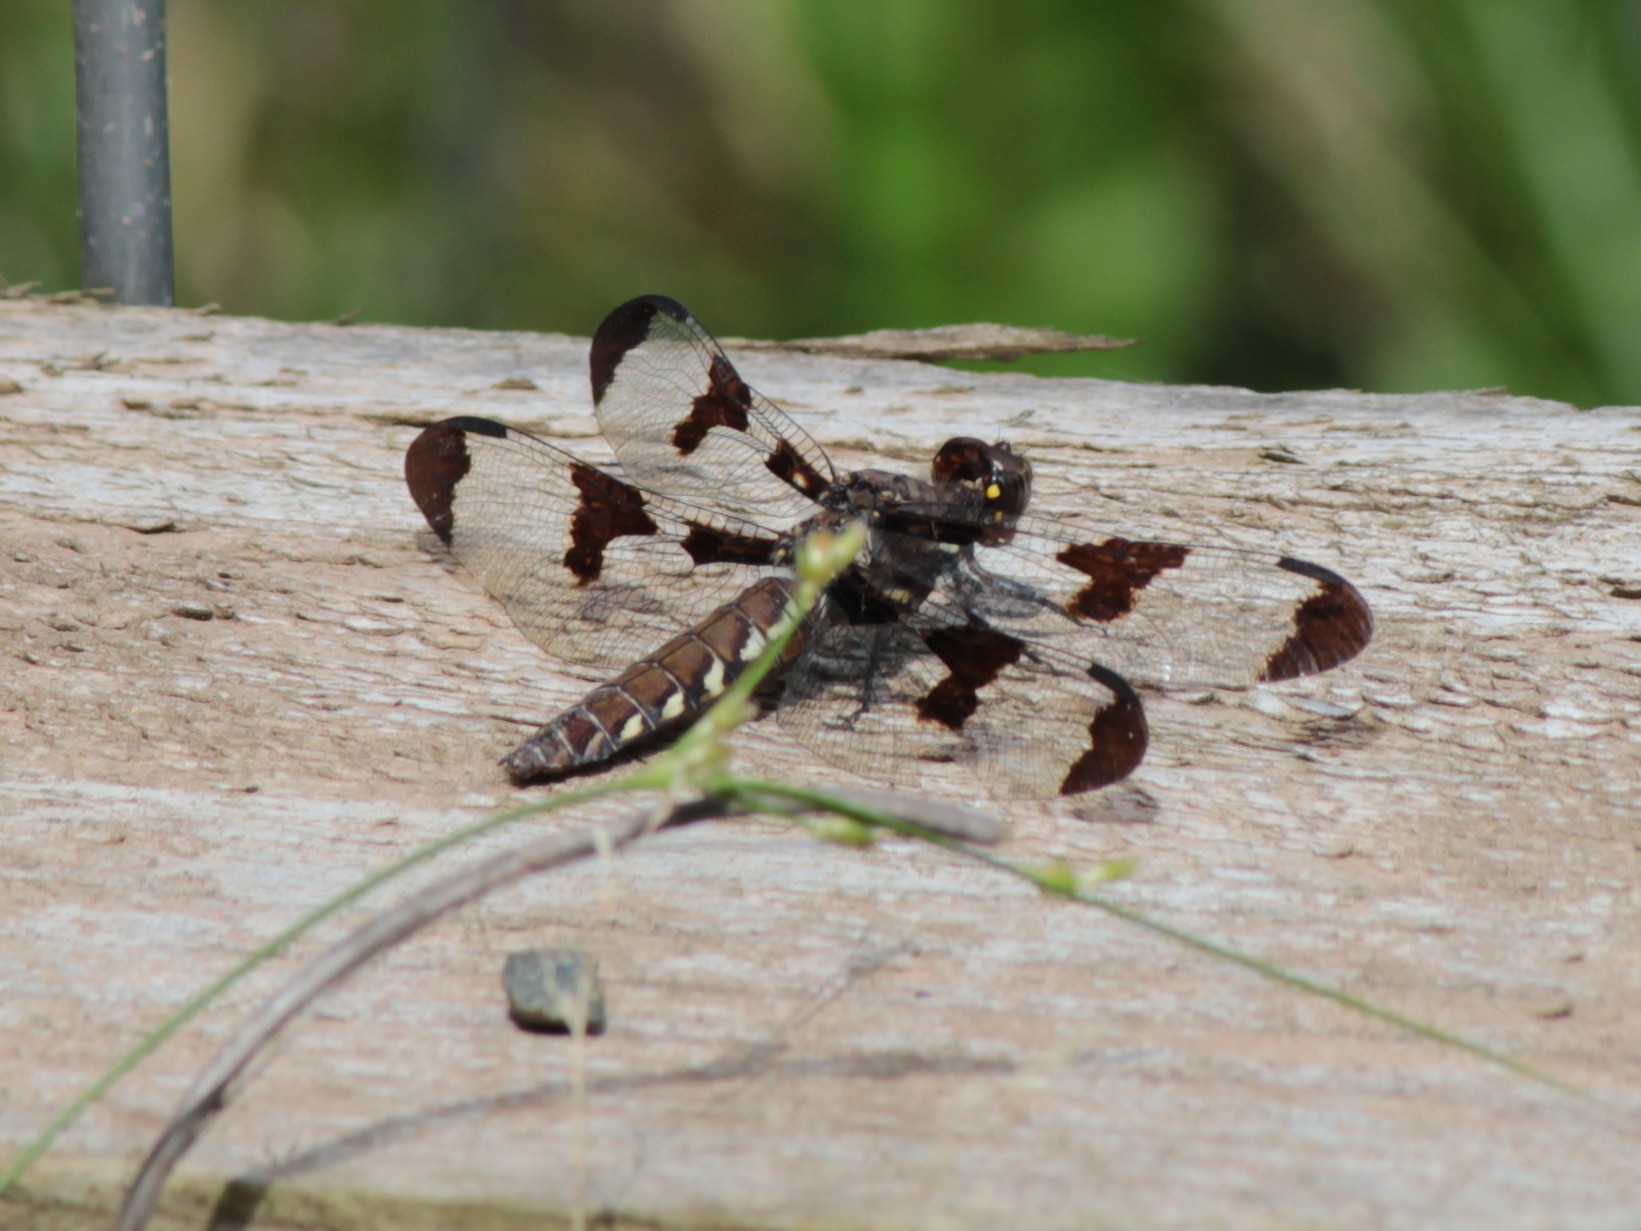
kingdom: Animalia
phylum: Arthropoda
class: Insecta
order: Odonata
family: Libellulidae
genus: Plathemis
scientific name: Plathemis lydia
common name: Common whitetail
